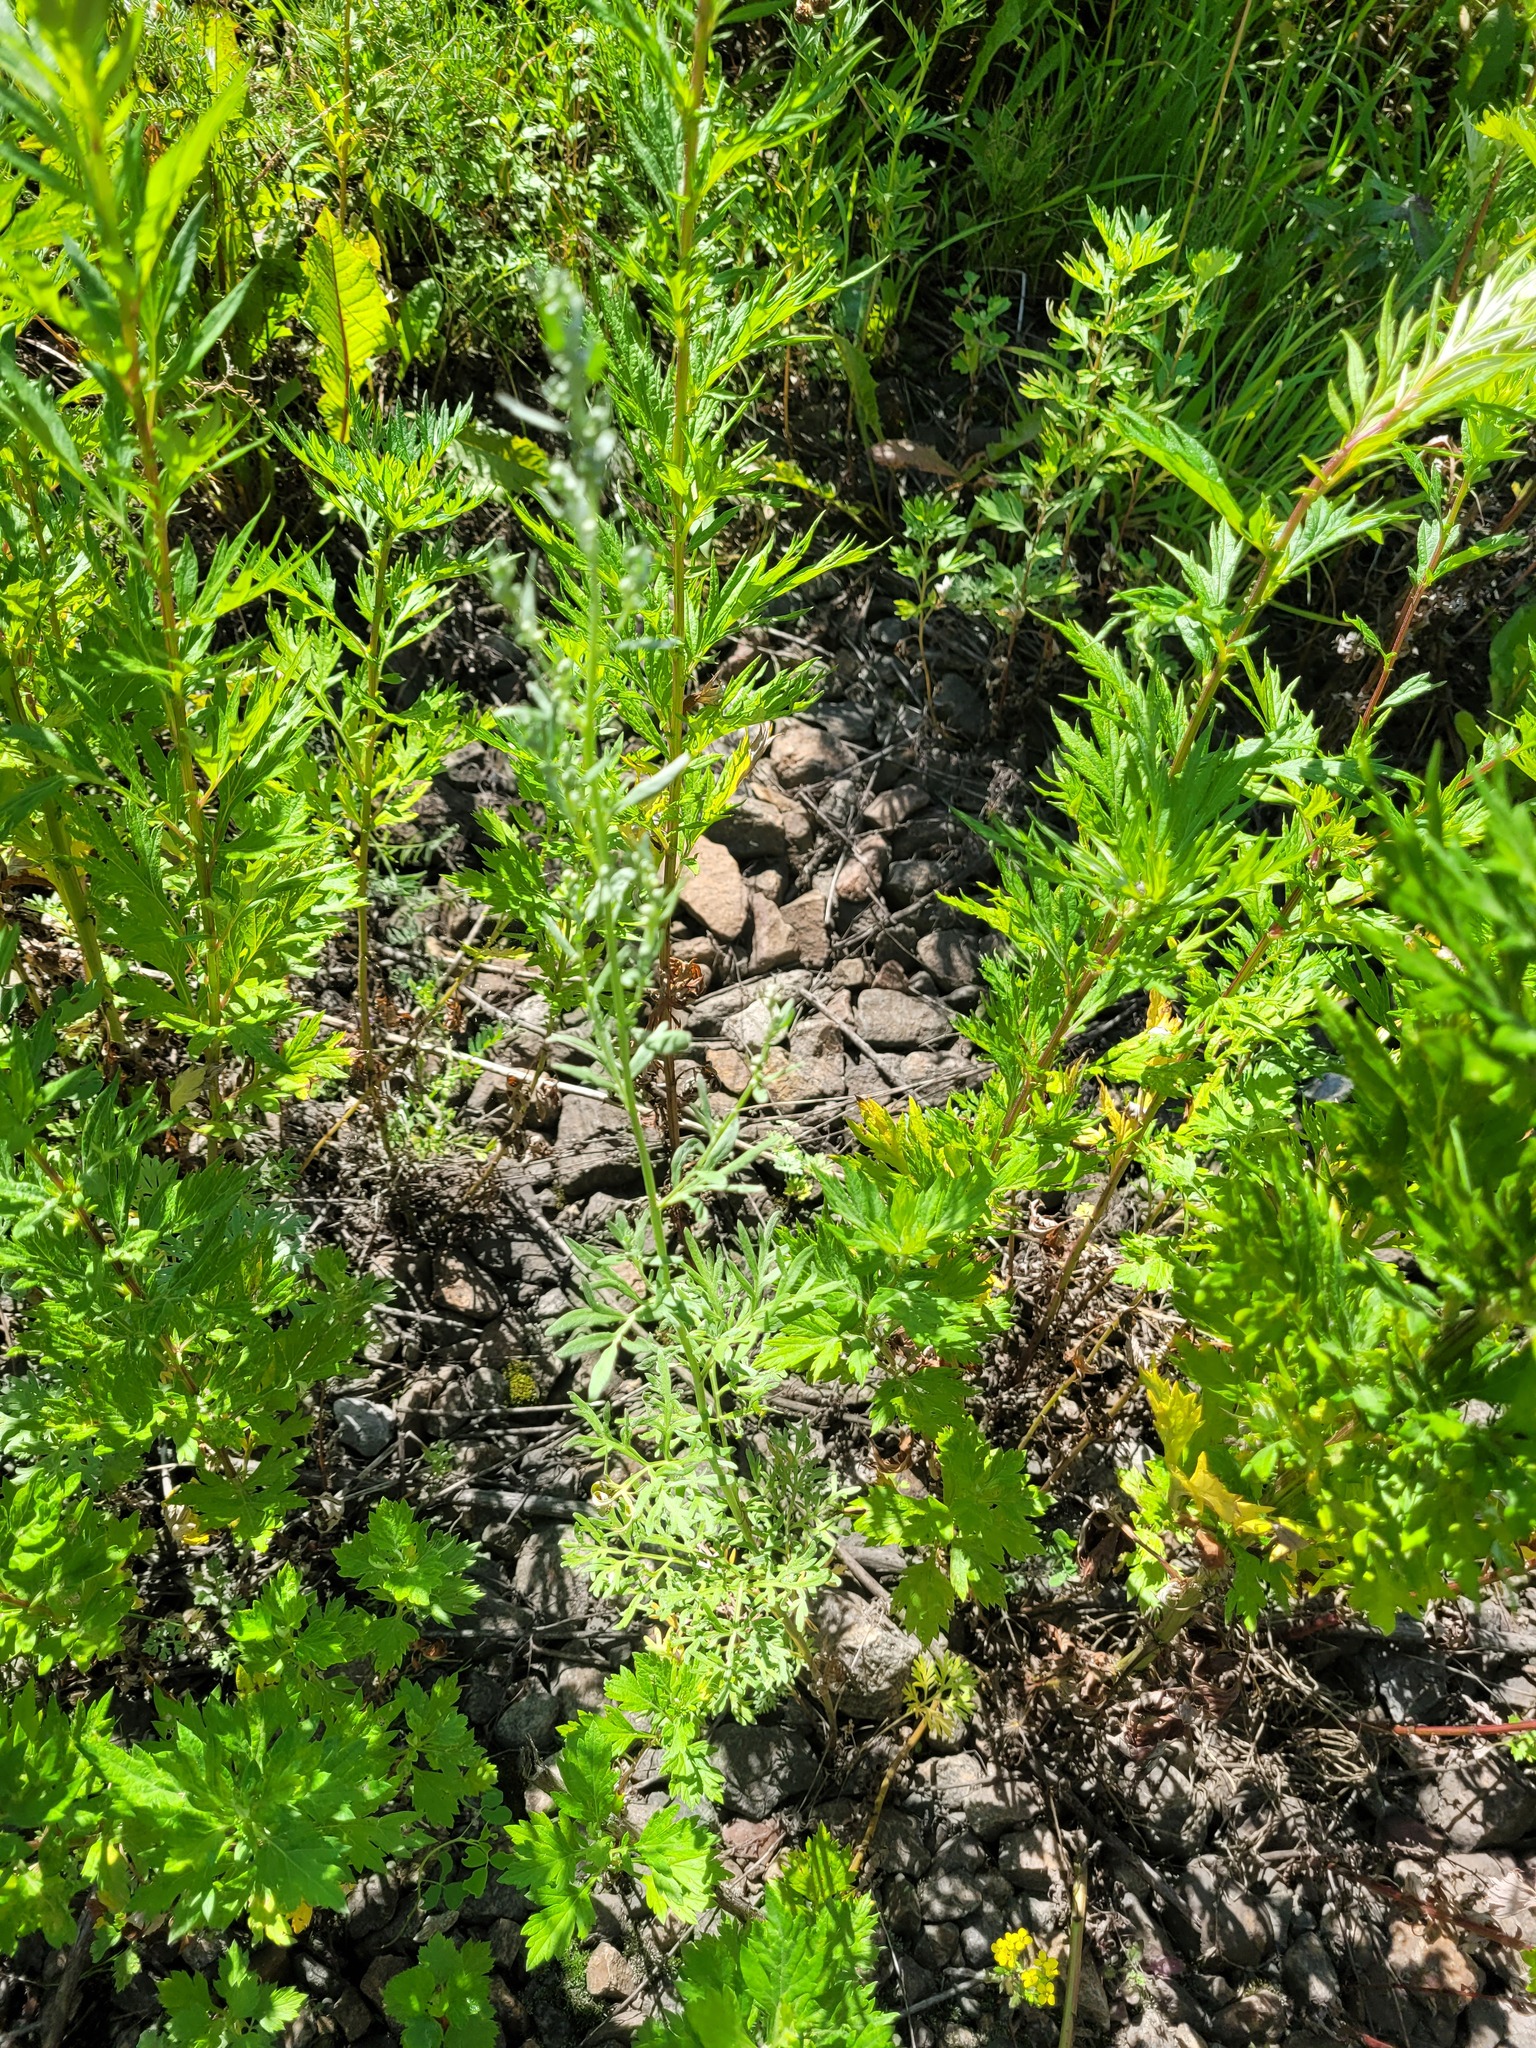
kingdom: Plantae
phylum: Tracheophyta
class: Magnoliopsida
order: Asterales
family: Asteraceae
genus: Artemisia
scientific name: Artemisia absinthium
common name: Wormwood
